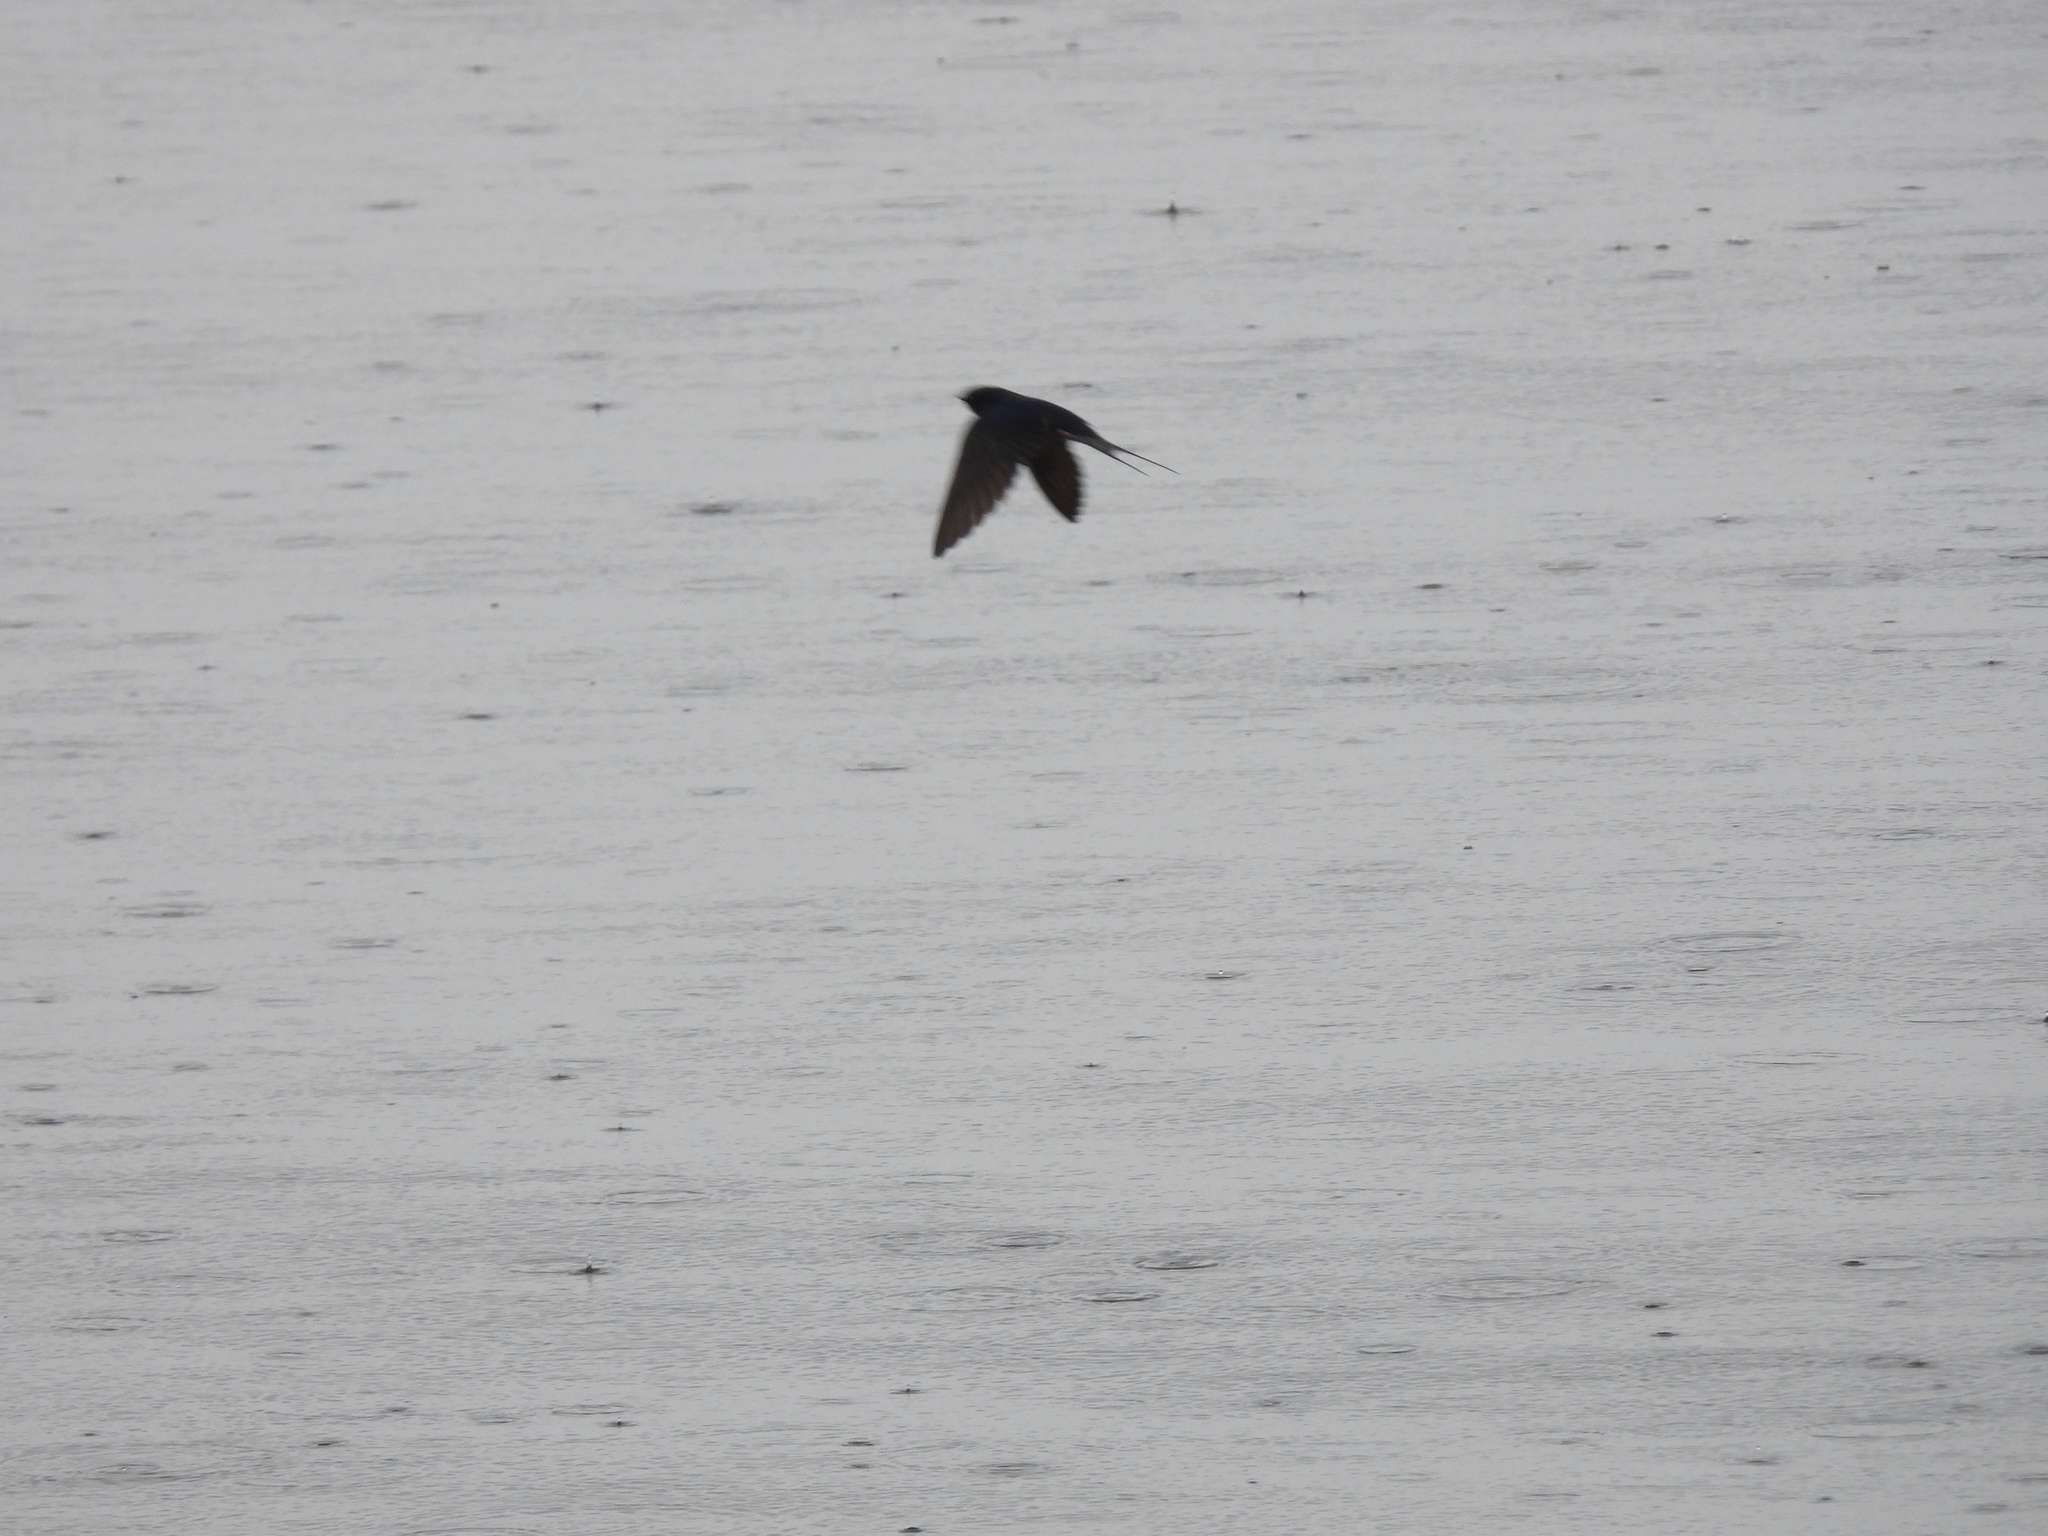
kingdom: Animalia
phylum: Chordata
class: Aves
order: Passeriformes
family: Hirundinidae
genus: Hirundo
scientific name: Hirundo rustica
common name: Barn swallow
